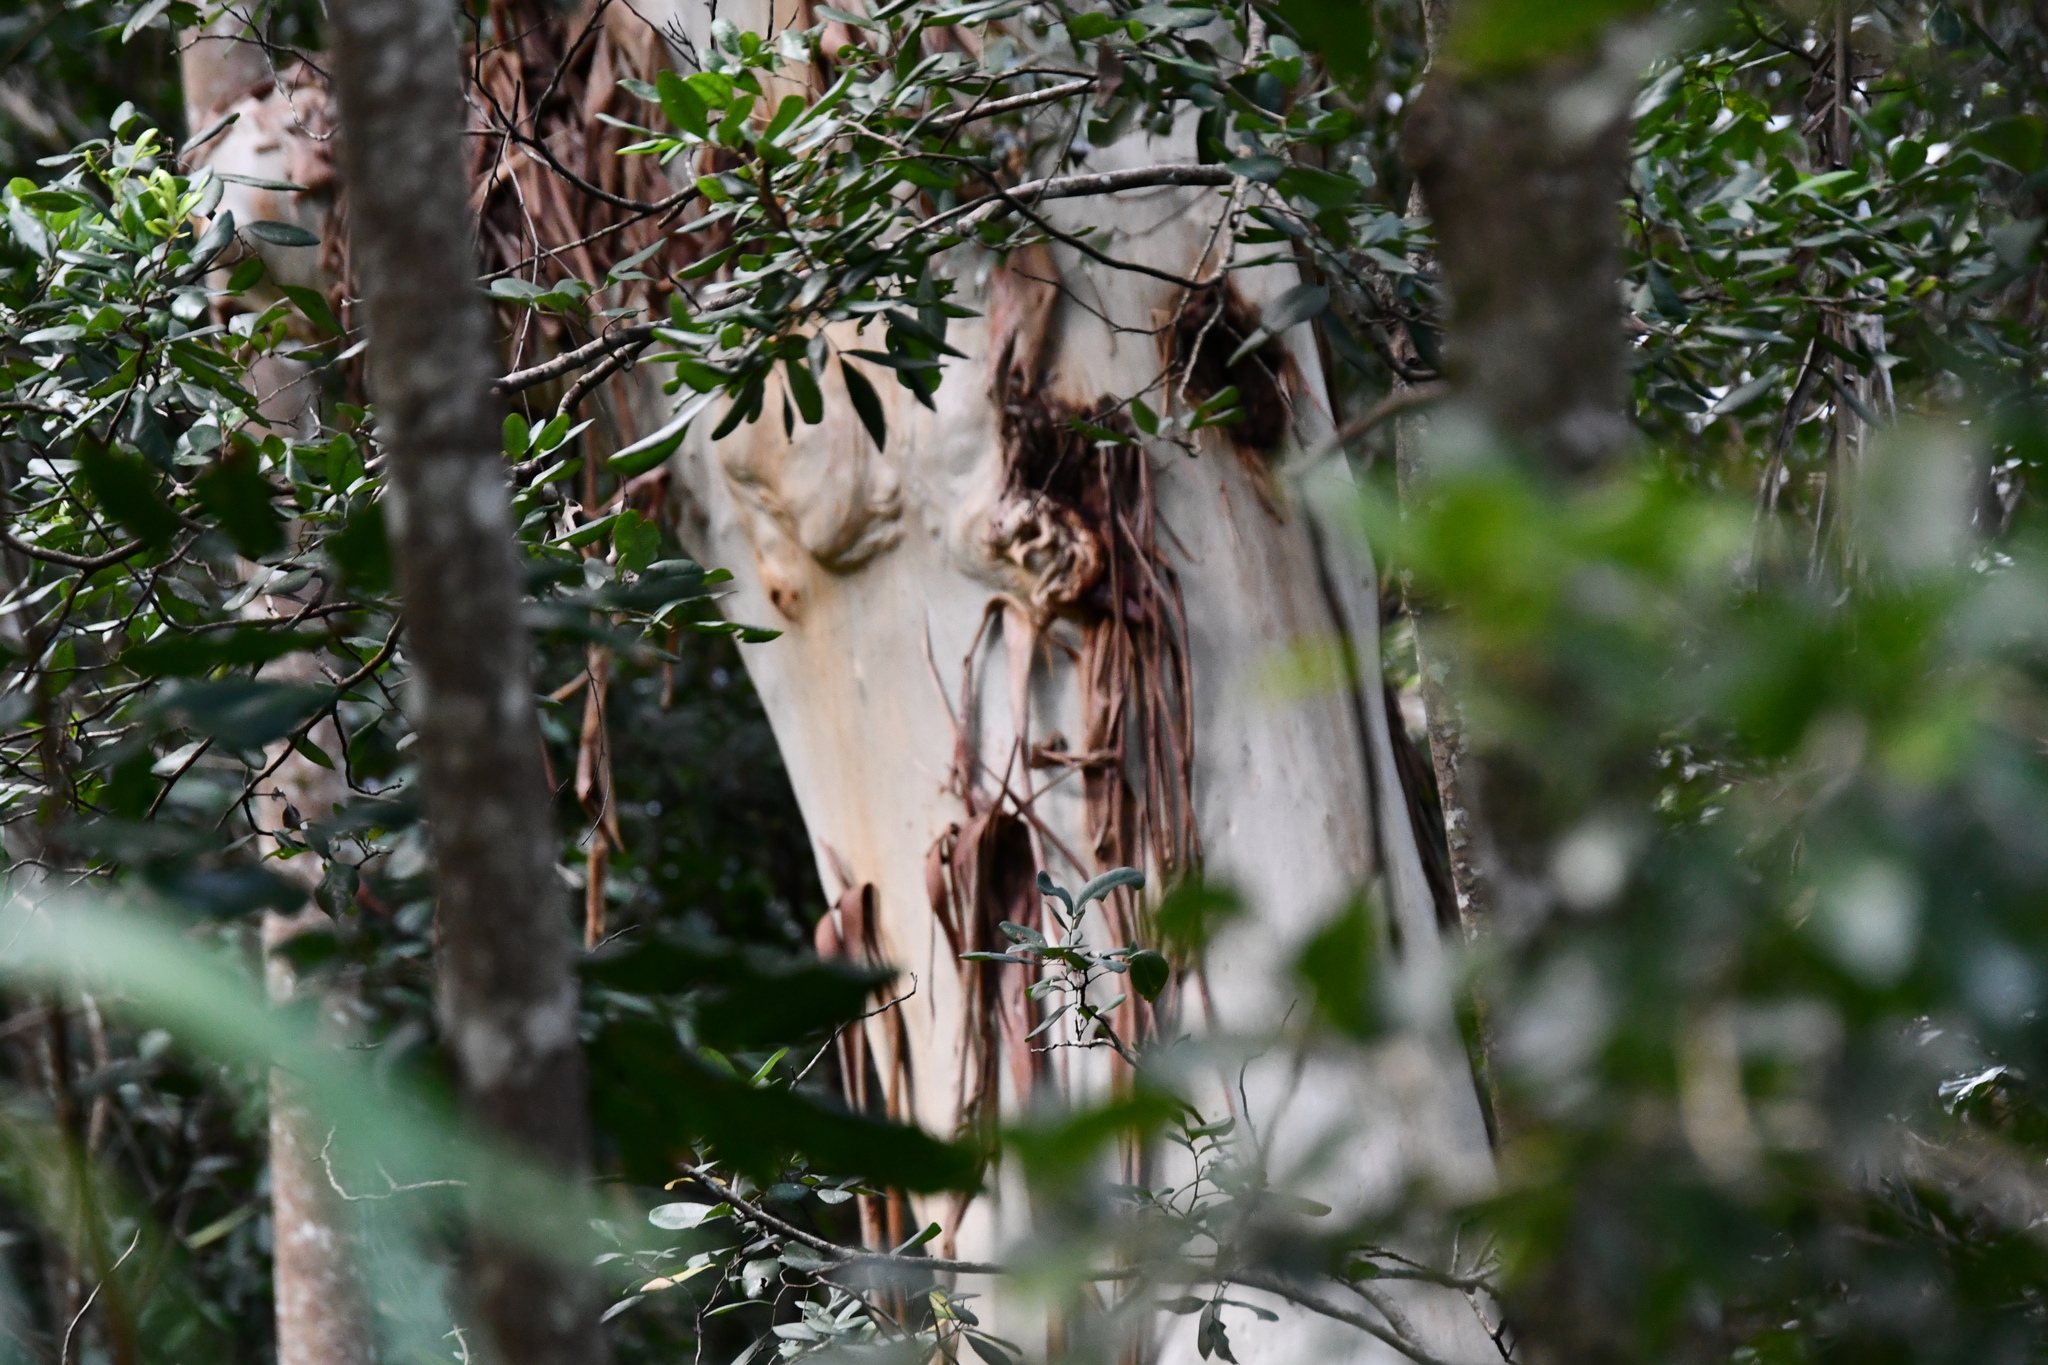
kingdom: Plantae
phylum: Tracheophyta
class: Magnoliopsida
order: Myrtales
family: Myrtaceae
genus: Eucalyptus
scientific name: Eucalyptus grandis
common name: Grand eucalyptus
